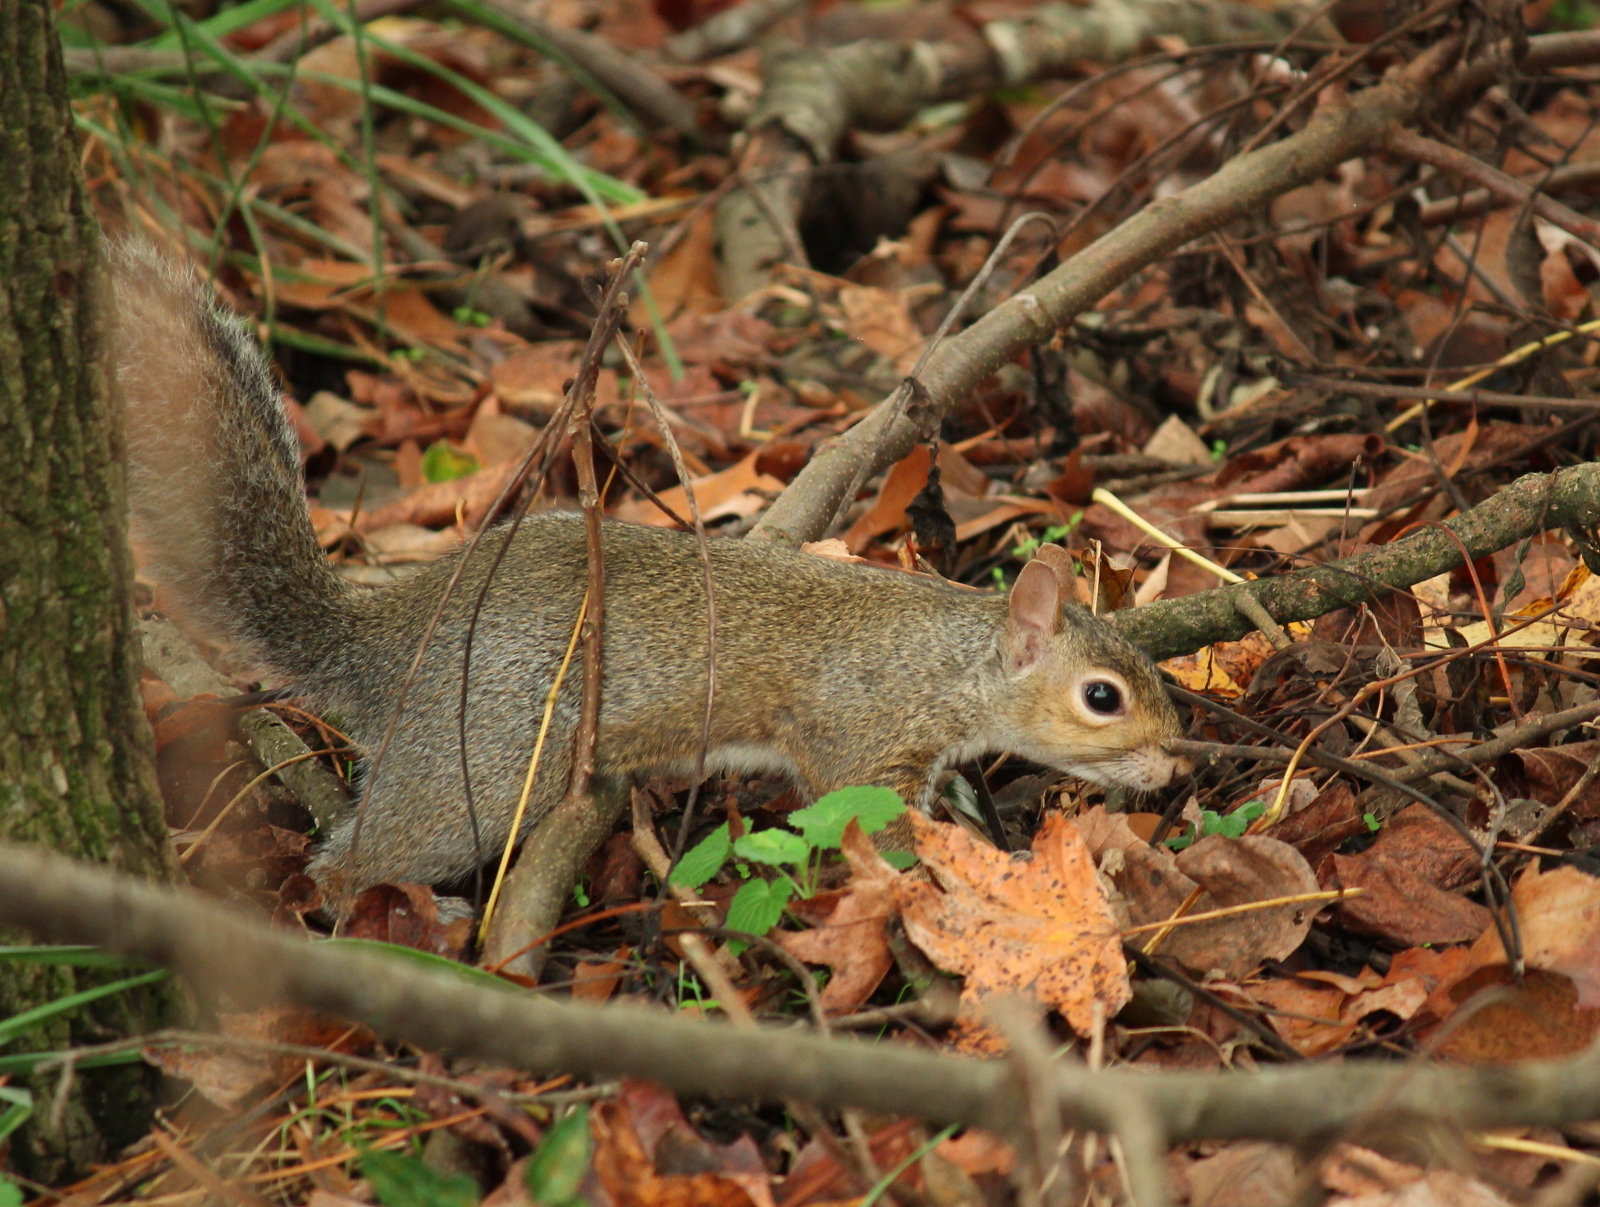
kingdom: Animalia
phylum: Chordata
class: Mammalia
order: Rodentia
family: Sciuridae
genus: Sciurus
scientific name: Sciurus carolinensis
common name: Eastern gray squirrel
